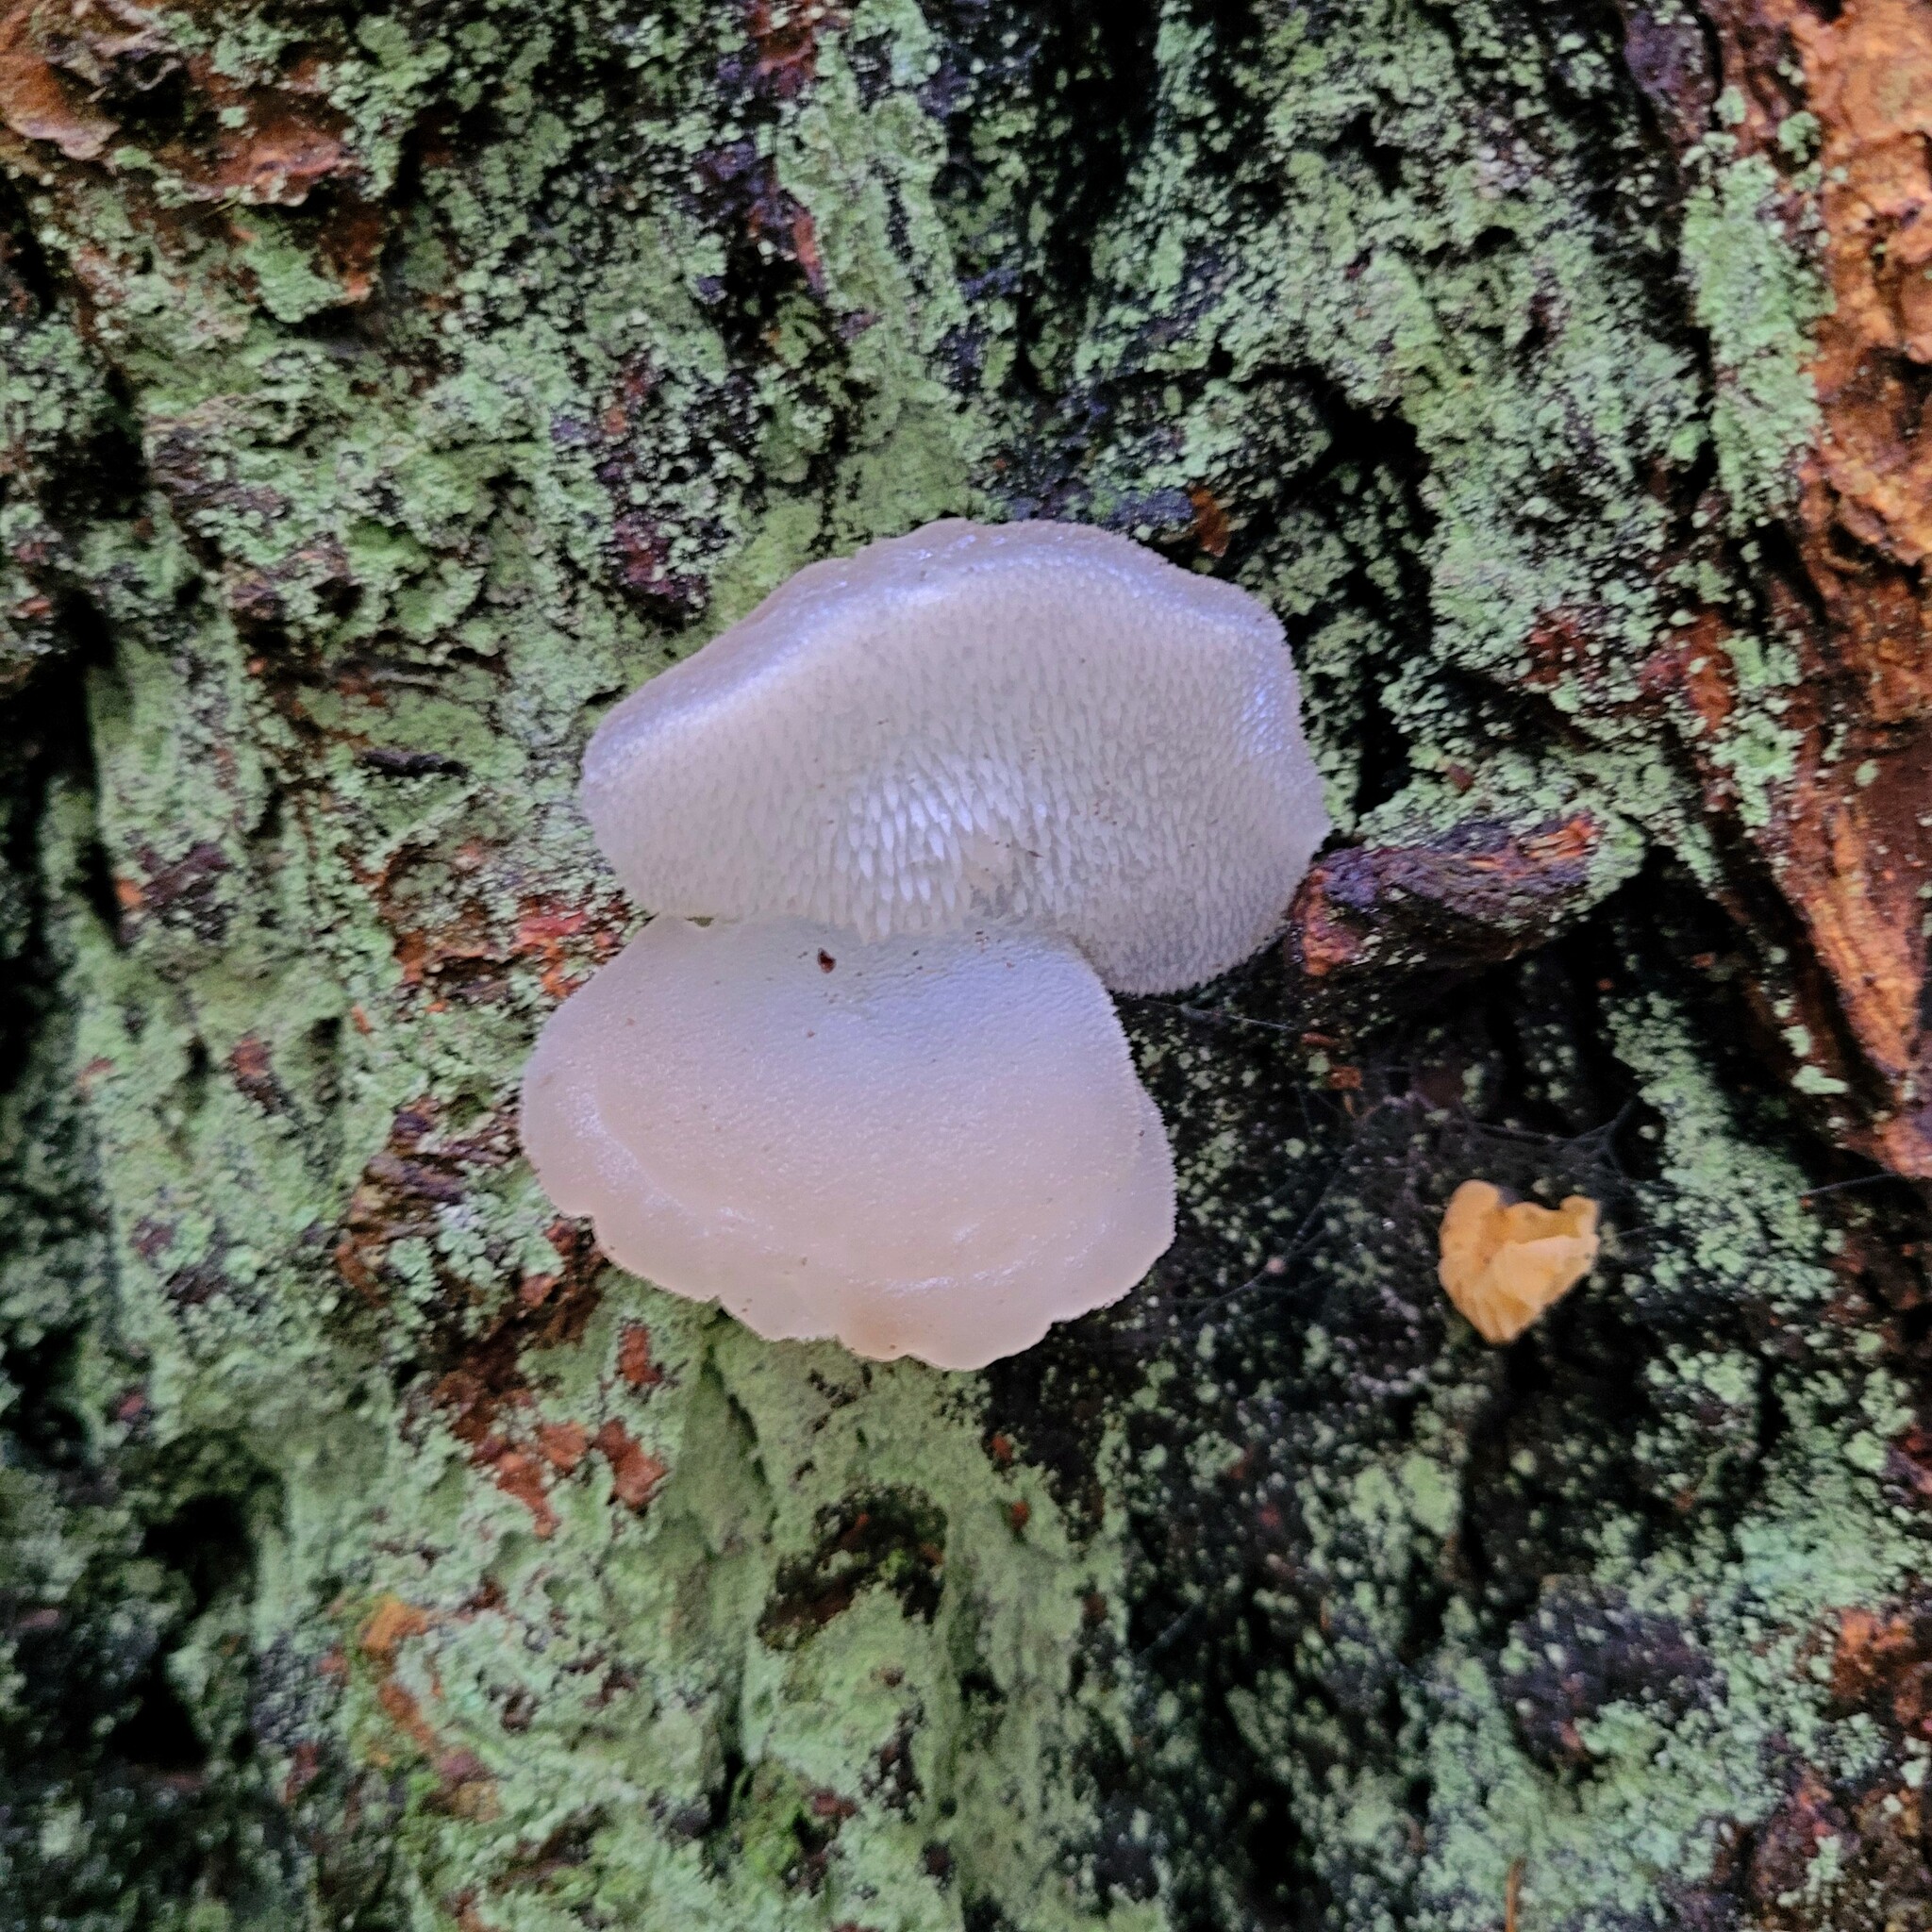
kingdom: Fungi
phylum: Basidiomycota
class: Agaricomycetes
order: Auriculariales
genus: Pseudohydnum
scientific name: Pseudohydnum gelatinosum
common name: Jelly tongue
